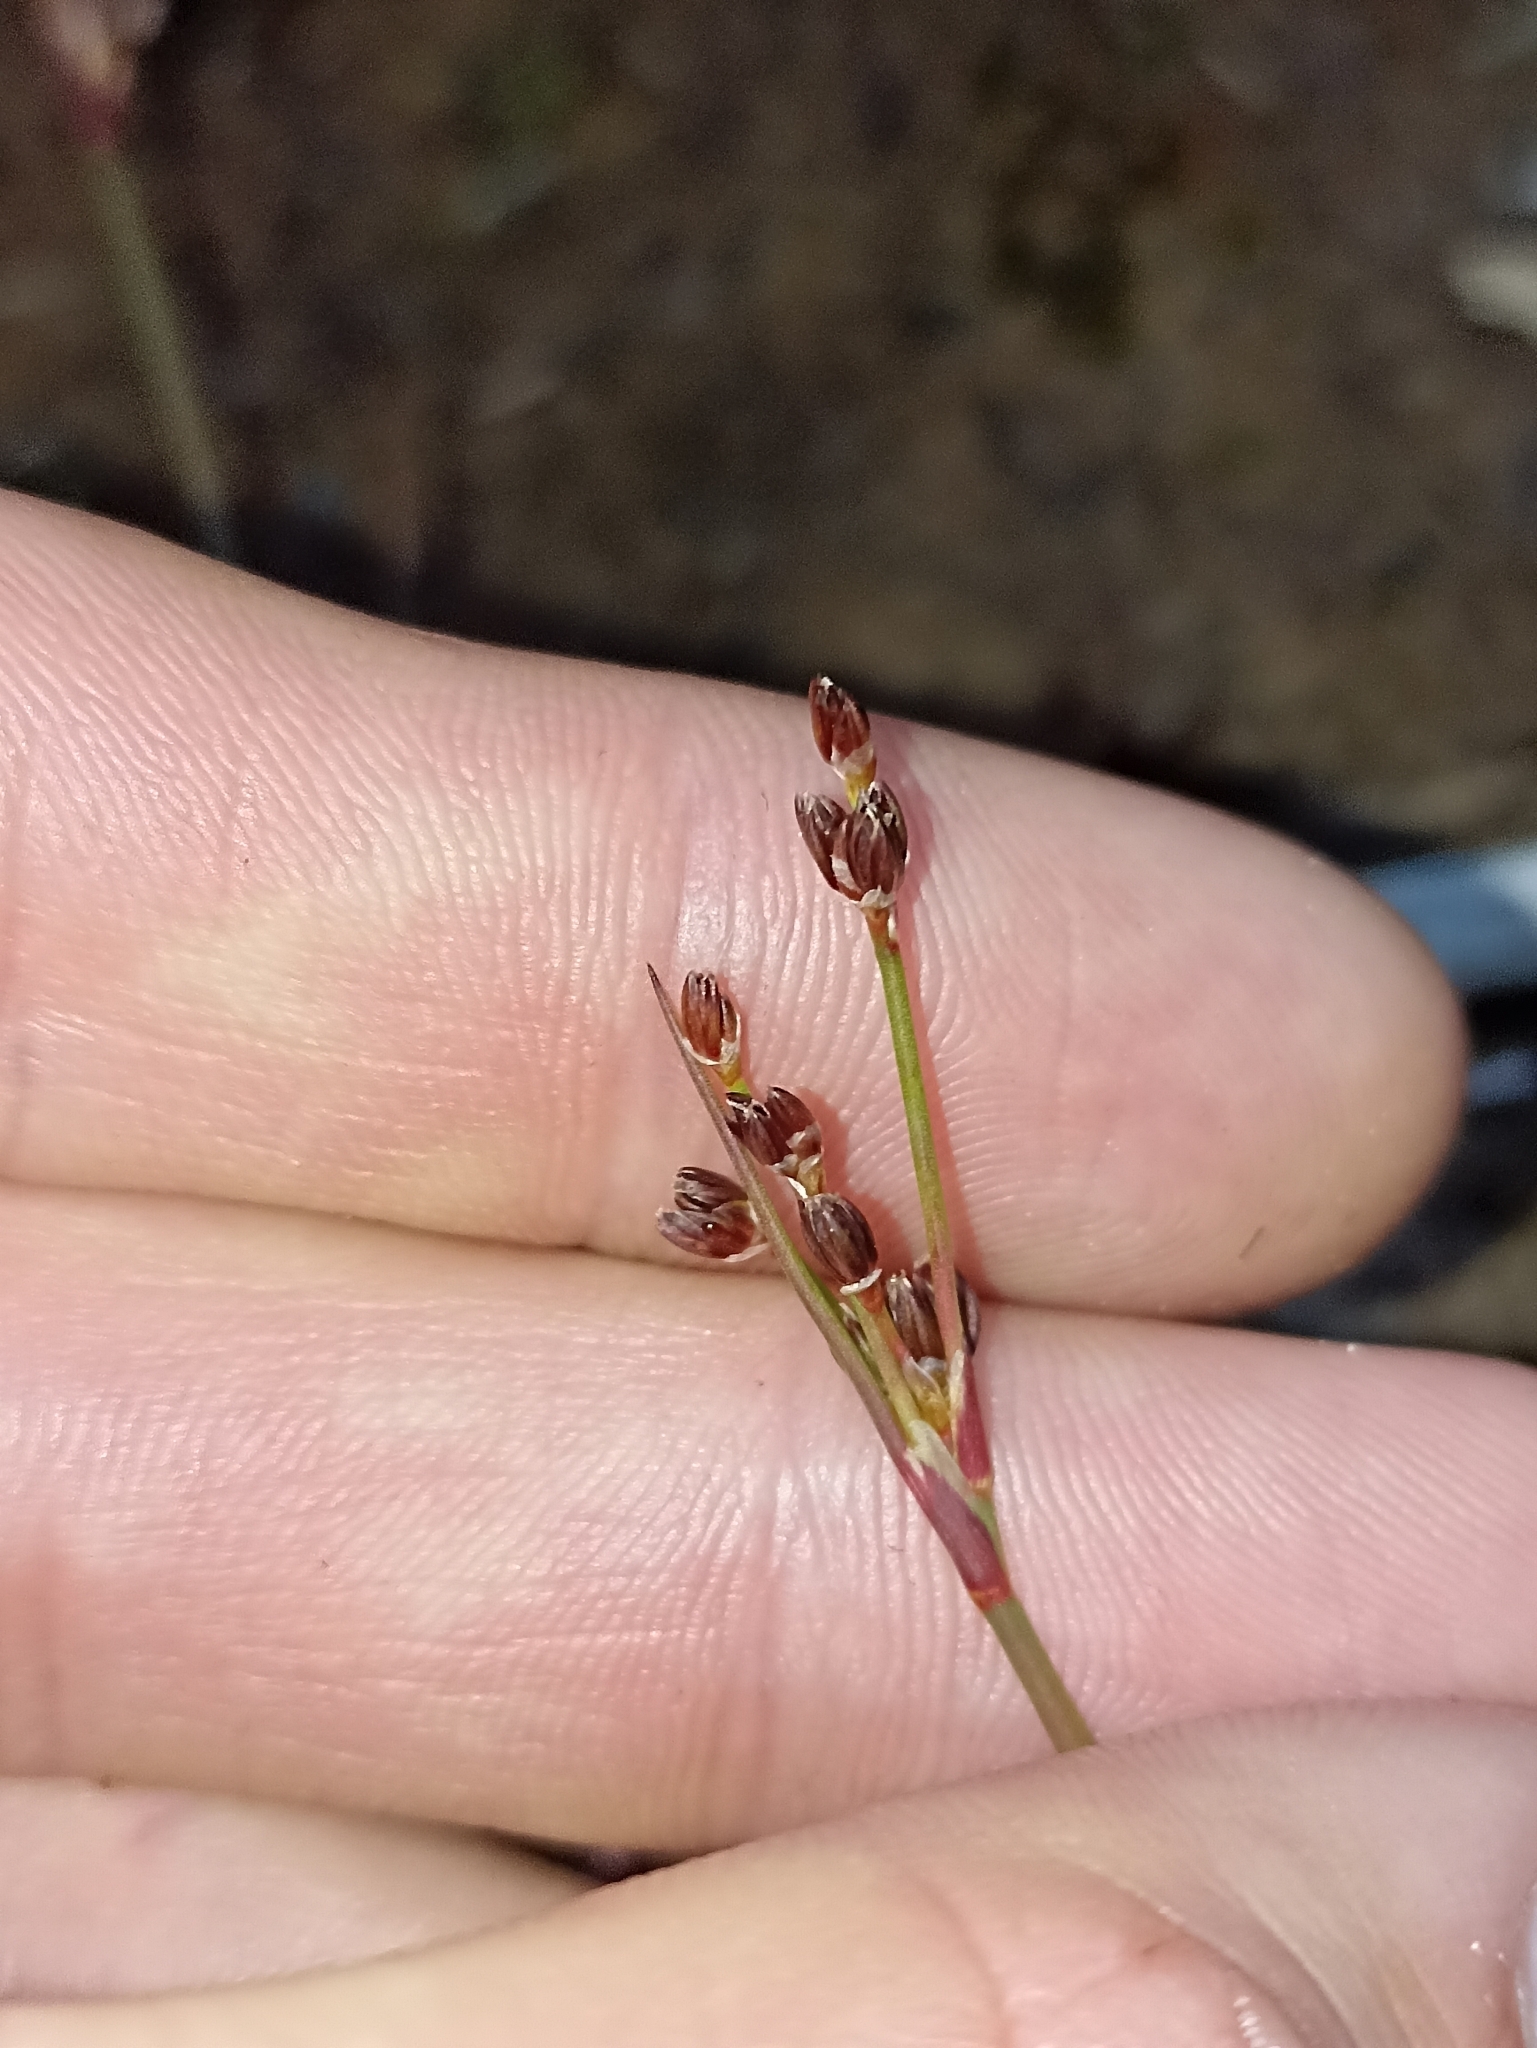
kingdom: Plantae
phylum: Tracheophyta
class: Liliopsida
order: Poales
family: Juncaceae
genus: Juncus
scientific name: Juncus bulbosus
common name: Bulbous rush
